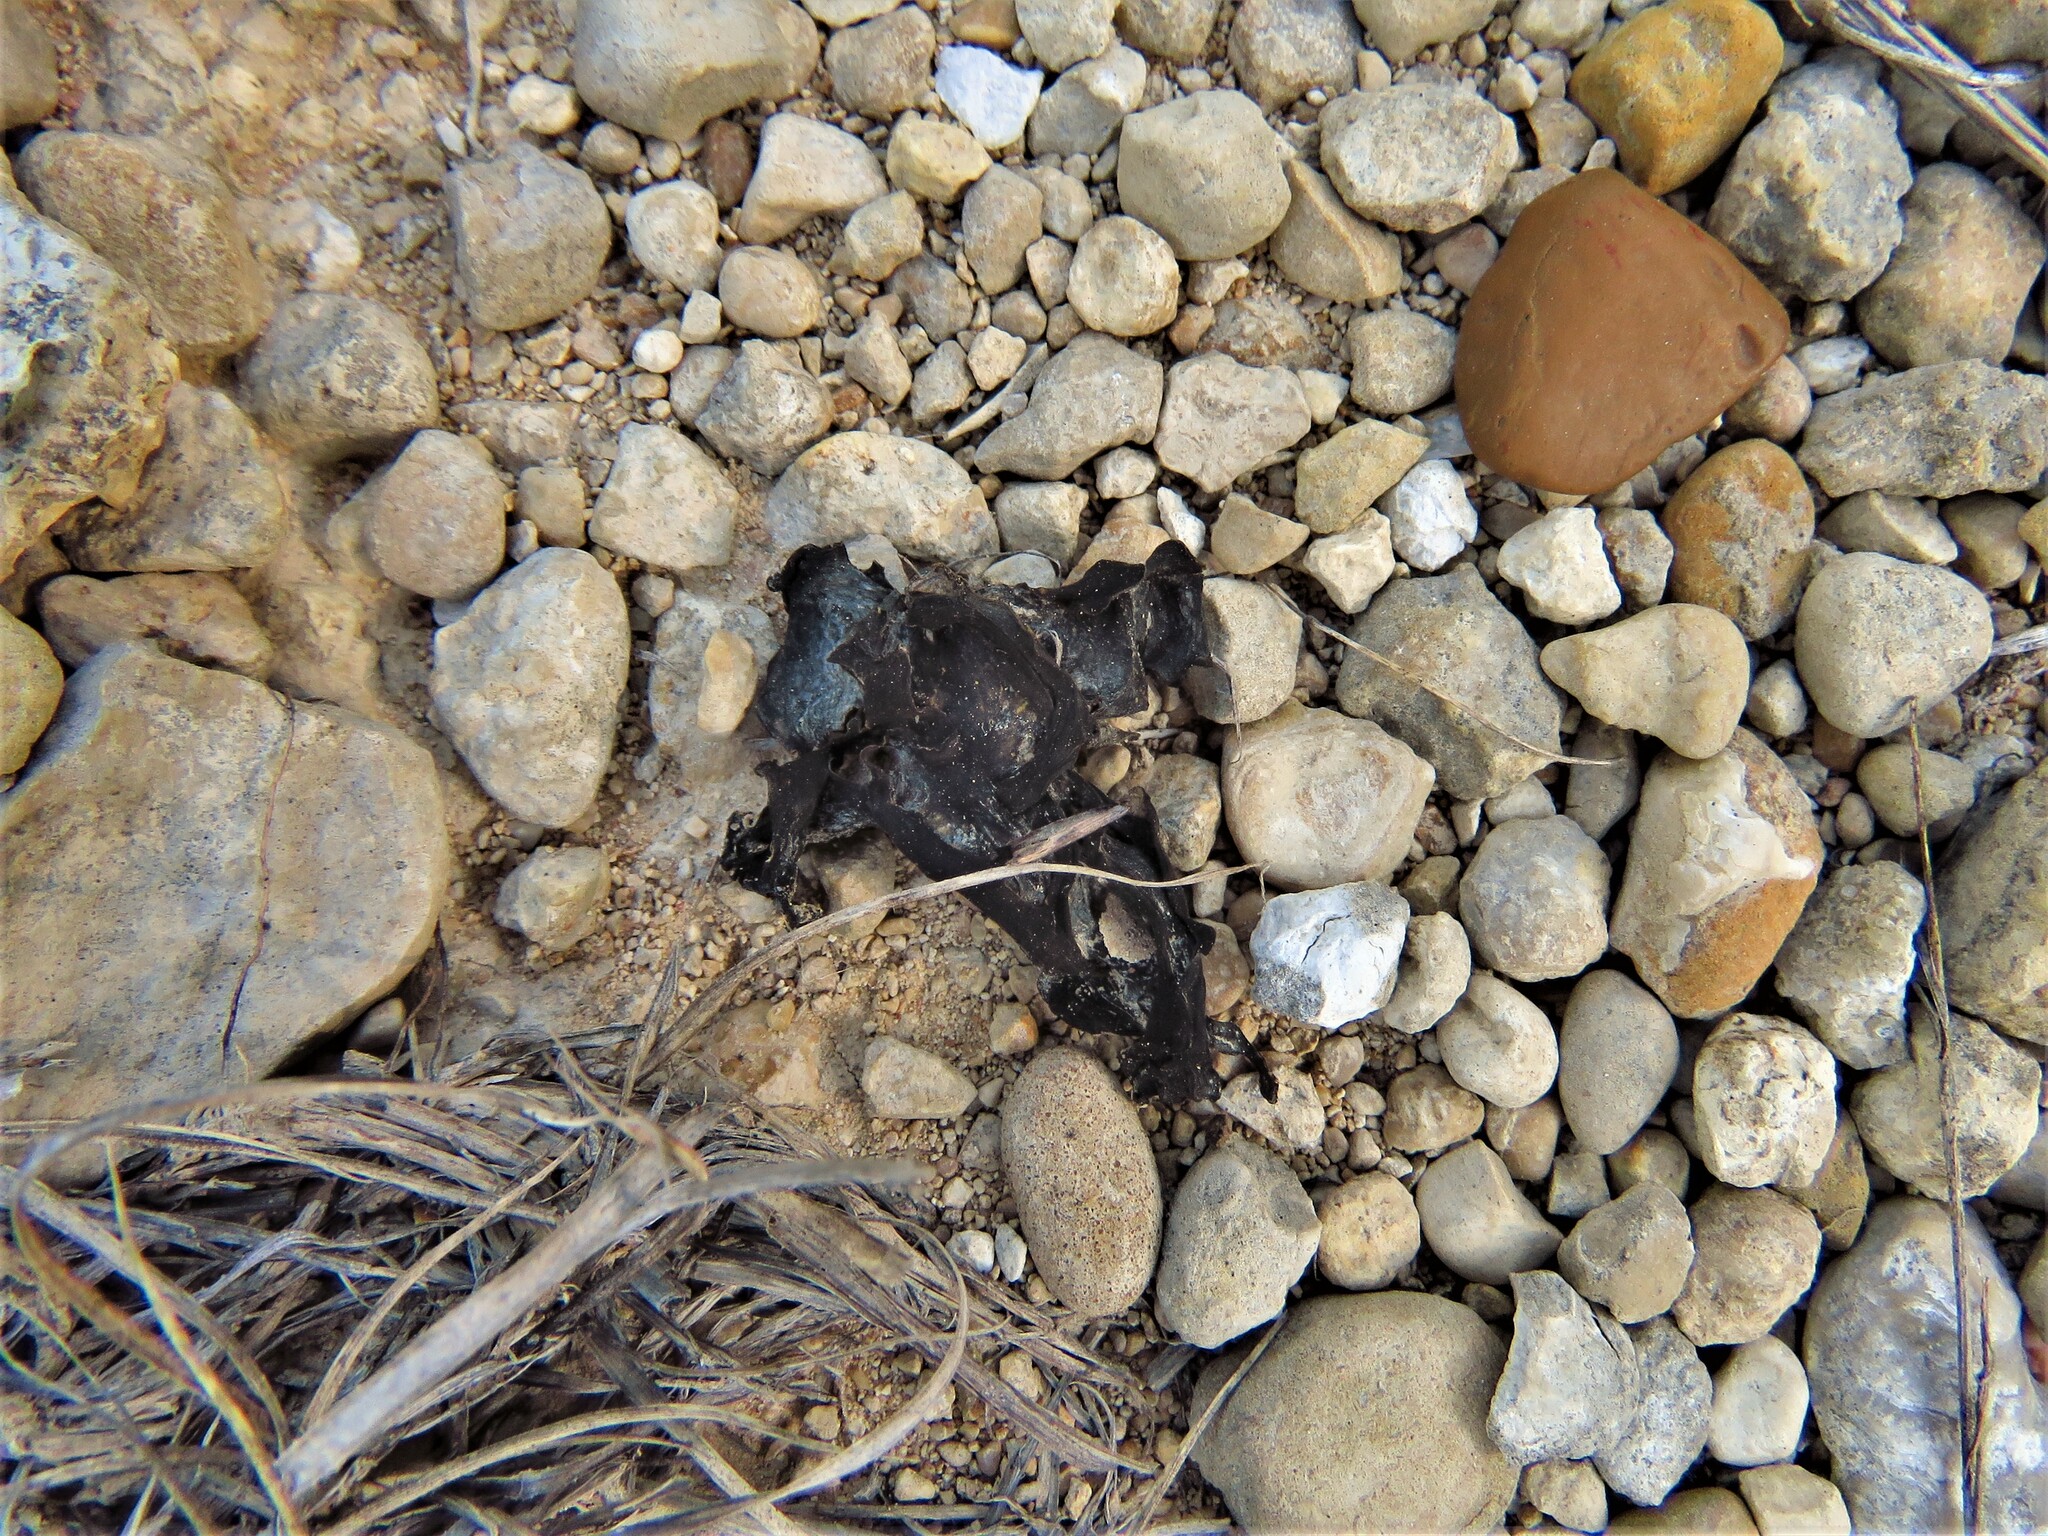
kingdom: Bacteria
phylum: Cyanobacteria
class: Cyanobacteriia
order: Cyanobacteriales
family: Nostocaceae
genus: Nostoc
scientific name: Nostoc commune
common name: Star jelly
